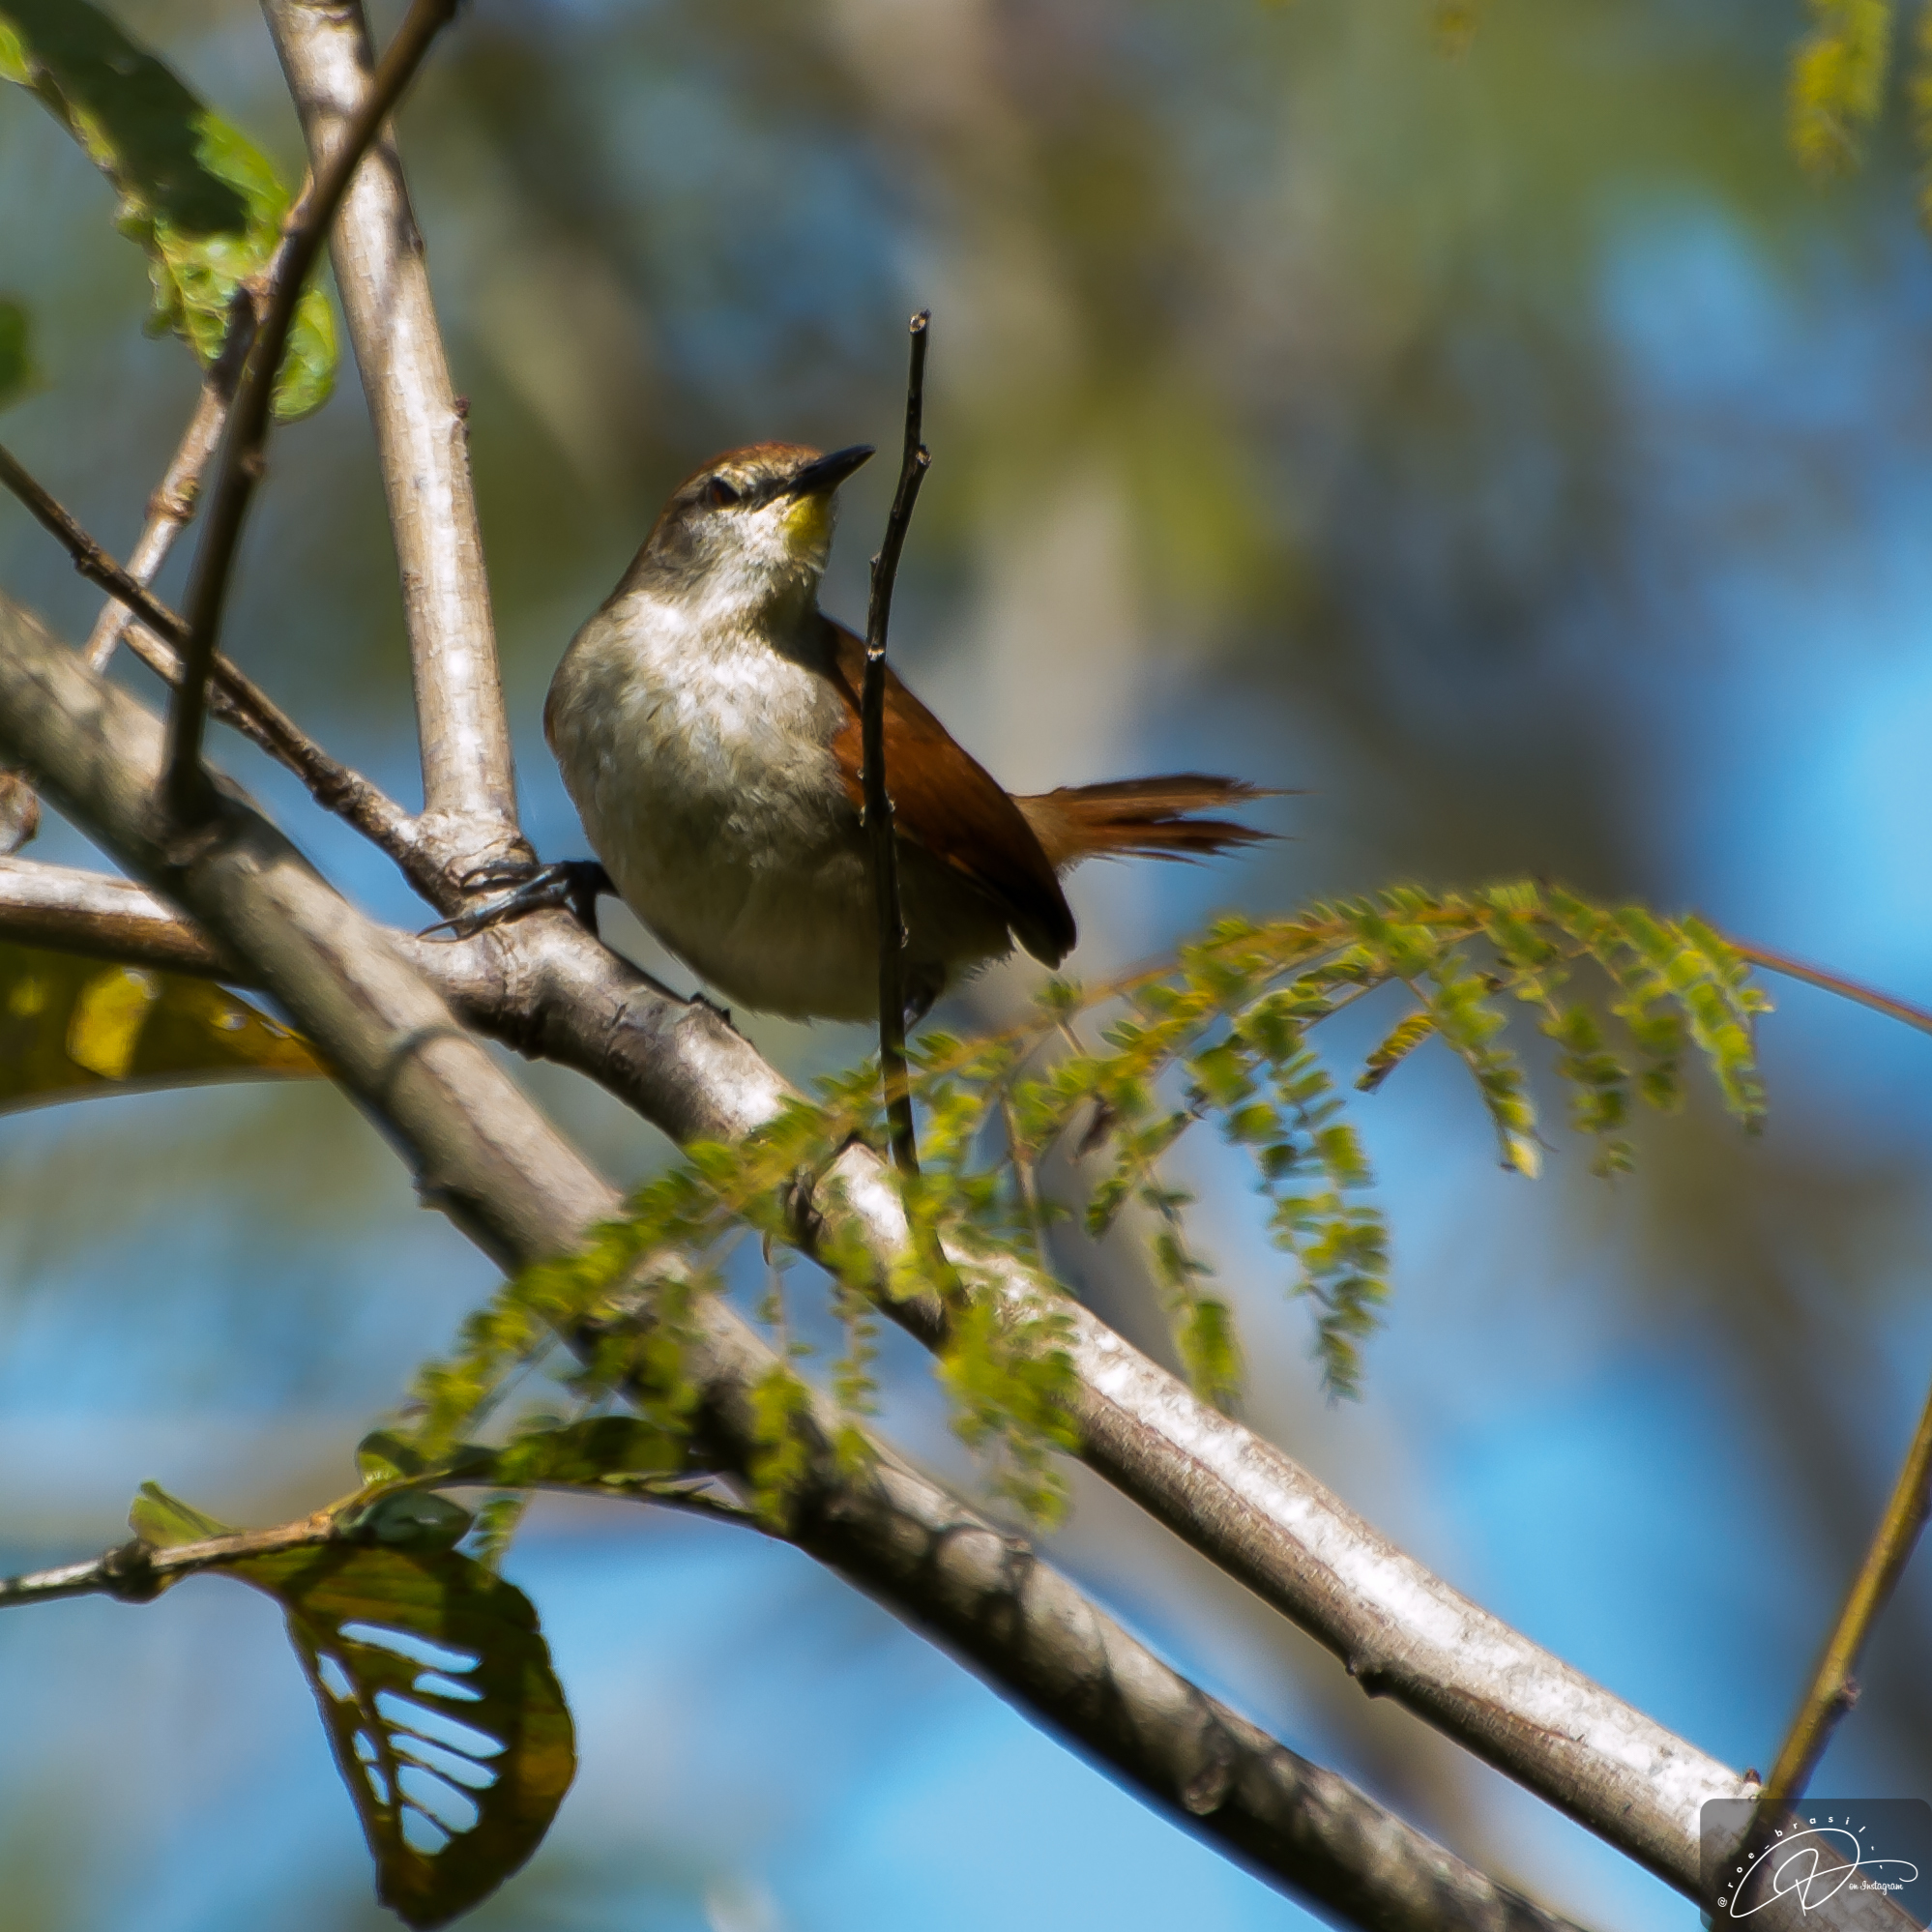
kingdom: Animalia
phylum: Chordata
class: Aves
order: Passeriformes
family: Furnariidae
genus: Certhiaxis
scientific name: Certhiaxis cinnamomeus
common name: Yellow-chinned spinetail
